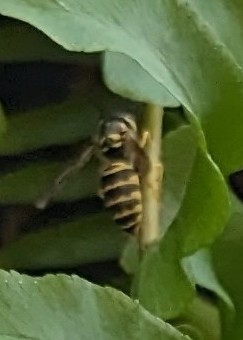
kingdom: Animalia
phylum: Arthropoda
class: Insecta
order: Hymenoptera
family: Vespidae
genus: Vespula
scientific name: Vespula maculifrons
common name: Eastern yellowjacket
